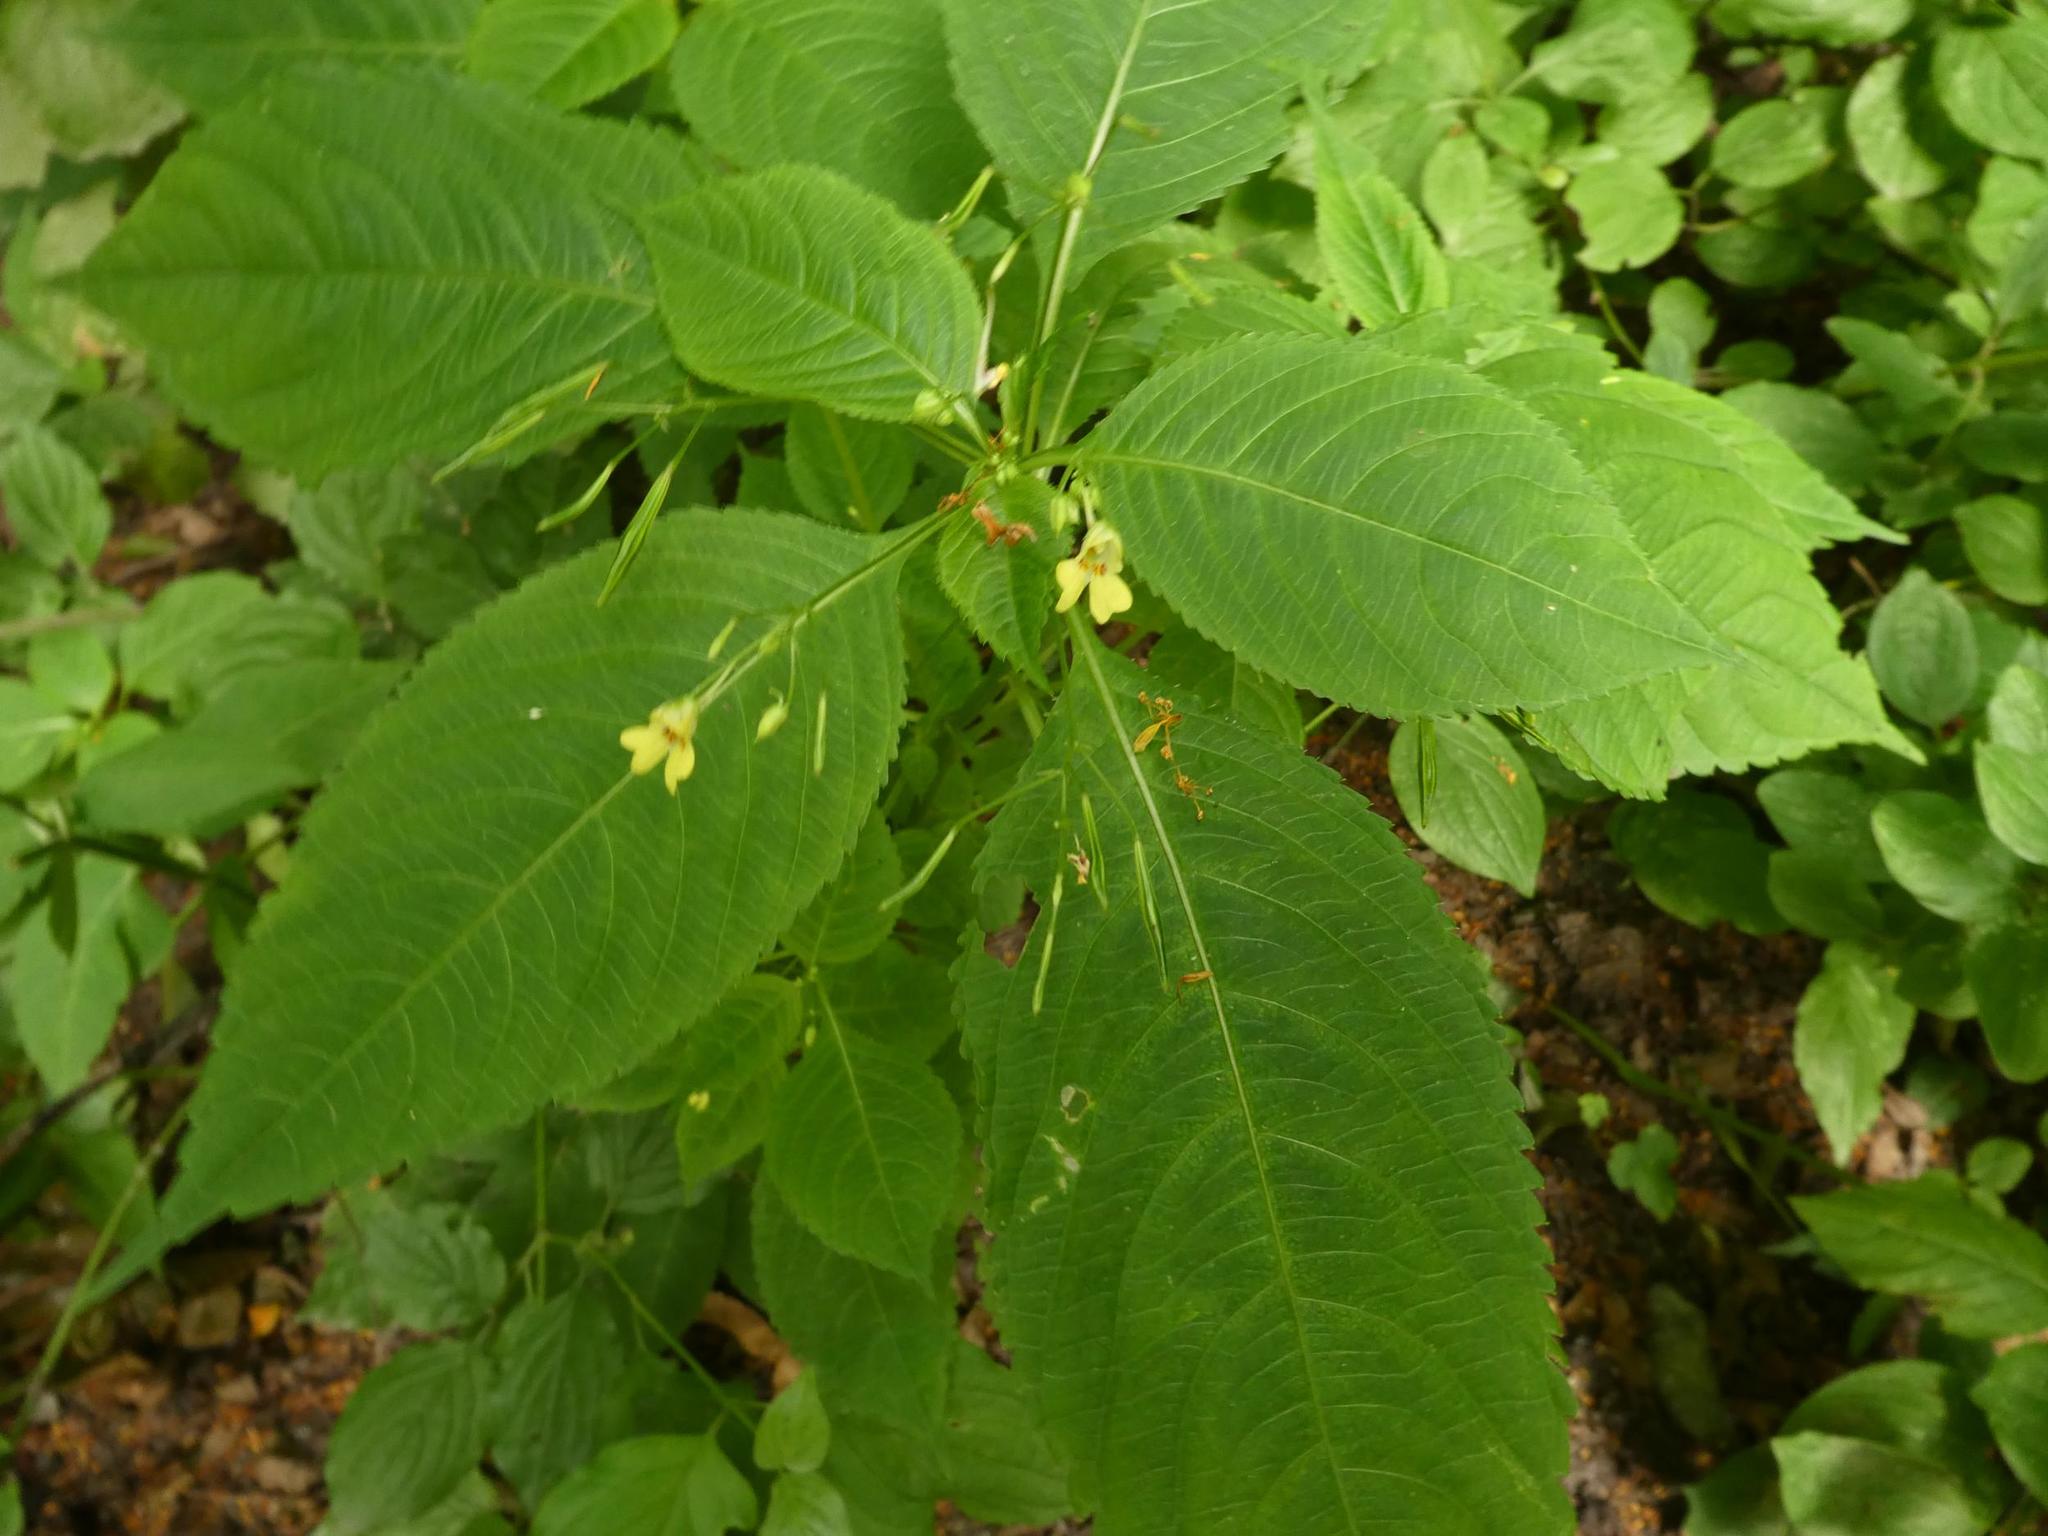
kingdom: Plantae
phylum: Tracheophyta
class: Magnoliopsida
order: Ericales
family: Balsaminaceae
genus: Impatiens
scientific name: Impatiens parviflora
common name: Small balsam
